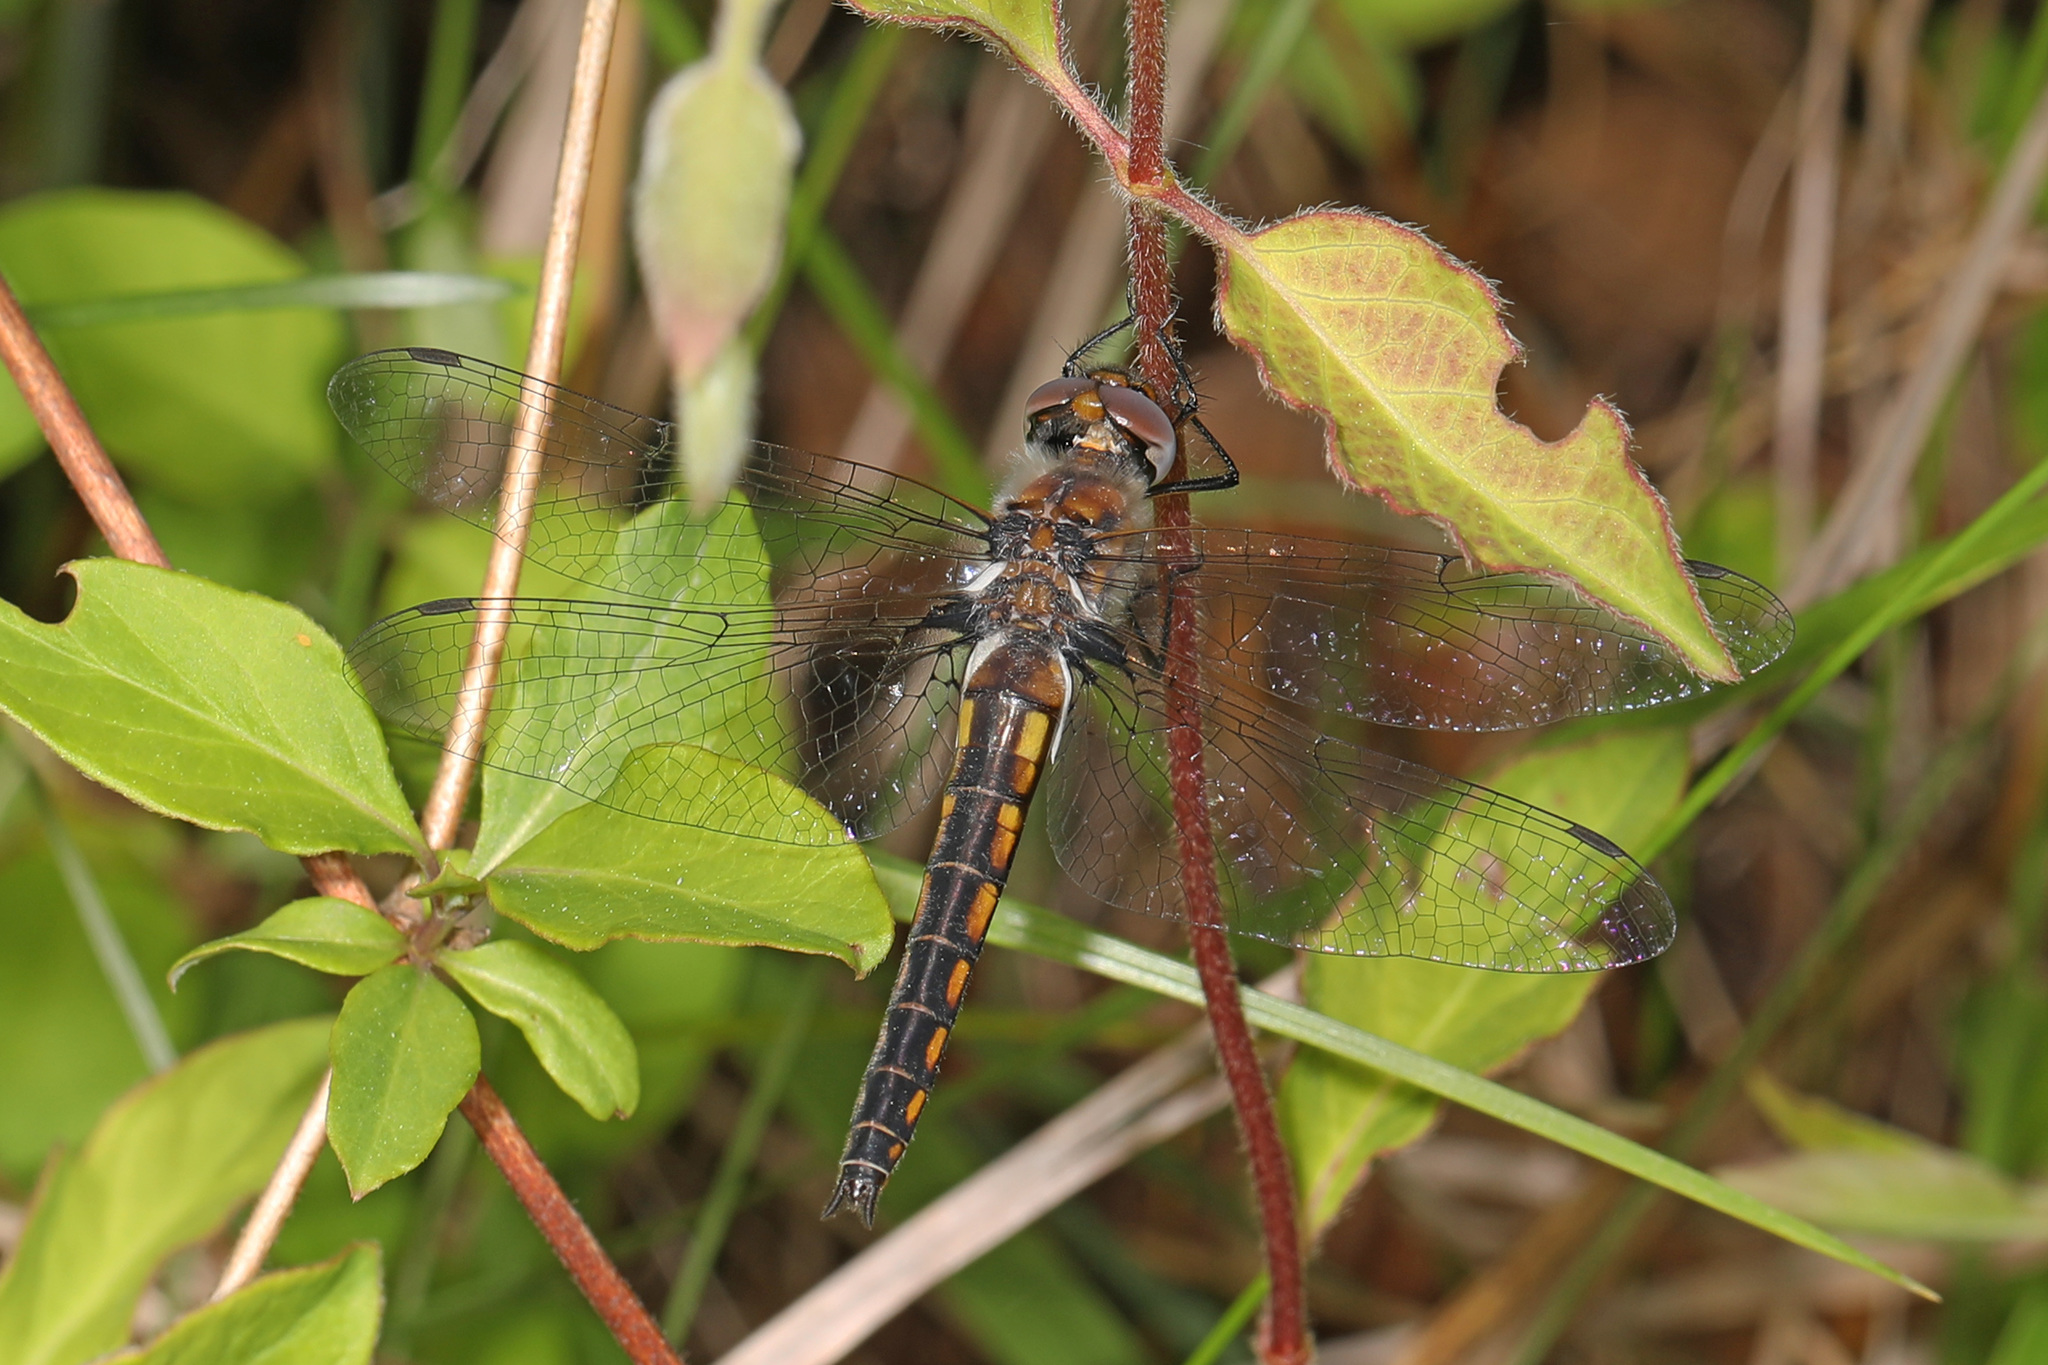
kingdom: Animalia
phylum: Arthropoda
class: Insecta
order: Odonata
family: Corduliidae
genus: Epitheca
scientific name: Epitheca cynosura
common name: Common baskettail
